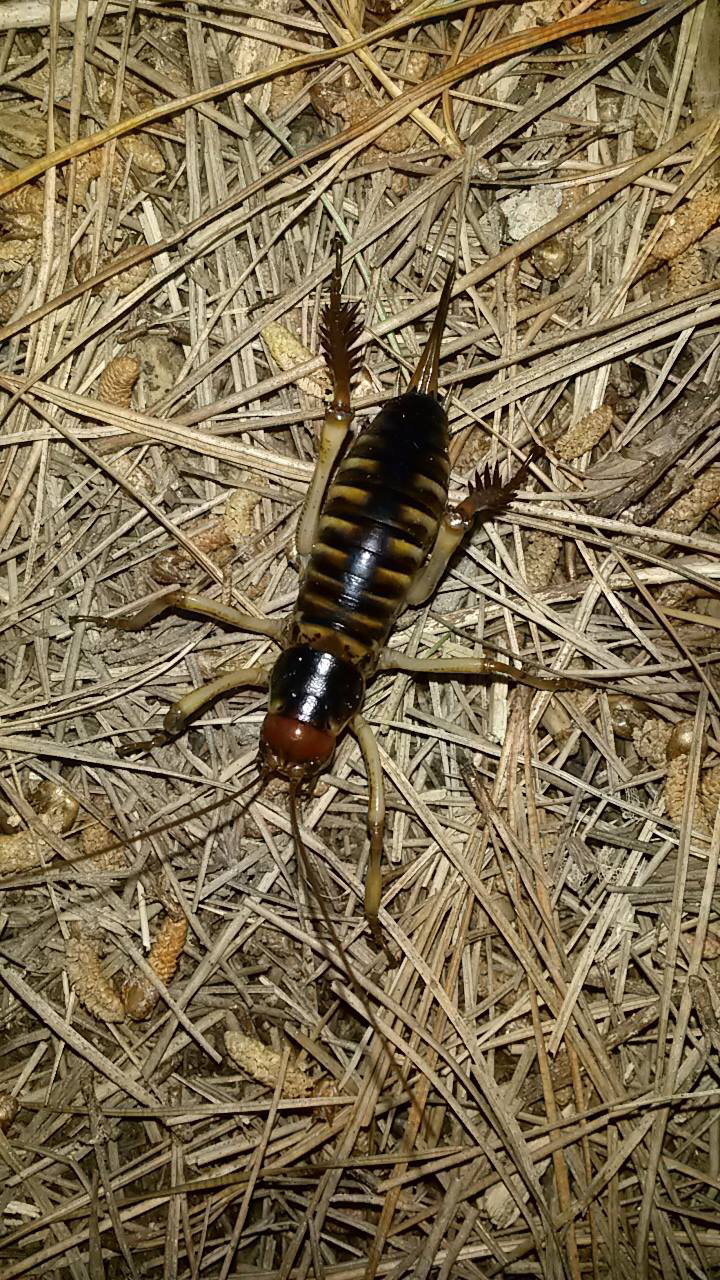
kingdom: Animalia
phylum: Arthropoda
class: Insecta
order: Orthoptera
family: Anostostomatidae
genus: Hemideina
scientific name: Hemideina crassidens
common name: Wellington tree weta
